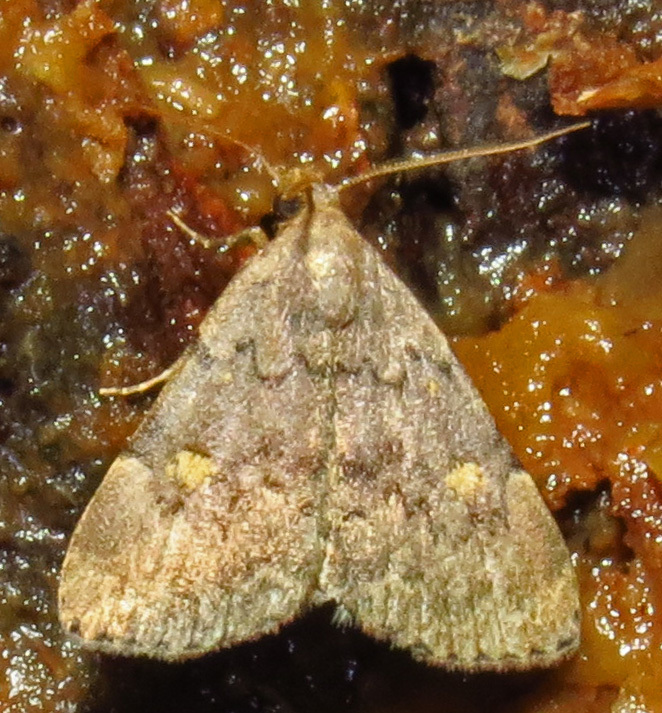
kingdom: Animalia
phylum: Arthropoda
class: Insecta
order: Lepidoptera
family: Erebidae
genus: Idia
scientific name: Idia aemula
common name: Common idia moth
